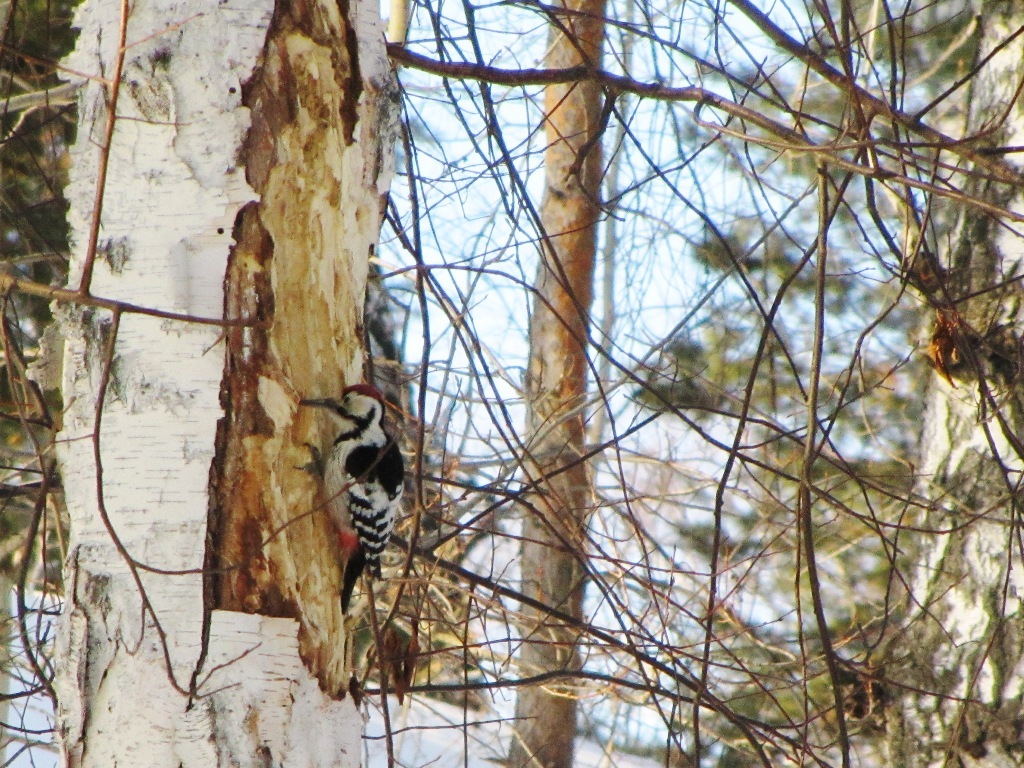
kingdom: Animalia
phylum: Chordata
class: Aves
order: Piciformes
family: Picidae
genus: Dendrocopos
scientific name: Dendrocopos leucotos
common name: White-backed woodpecker
